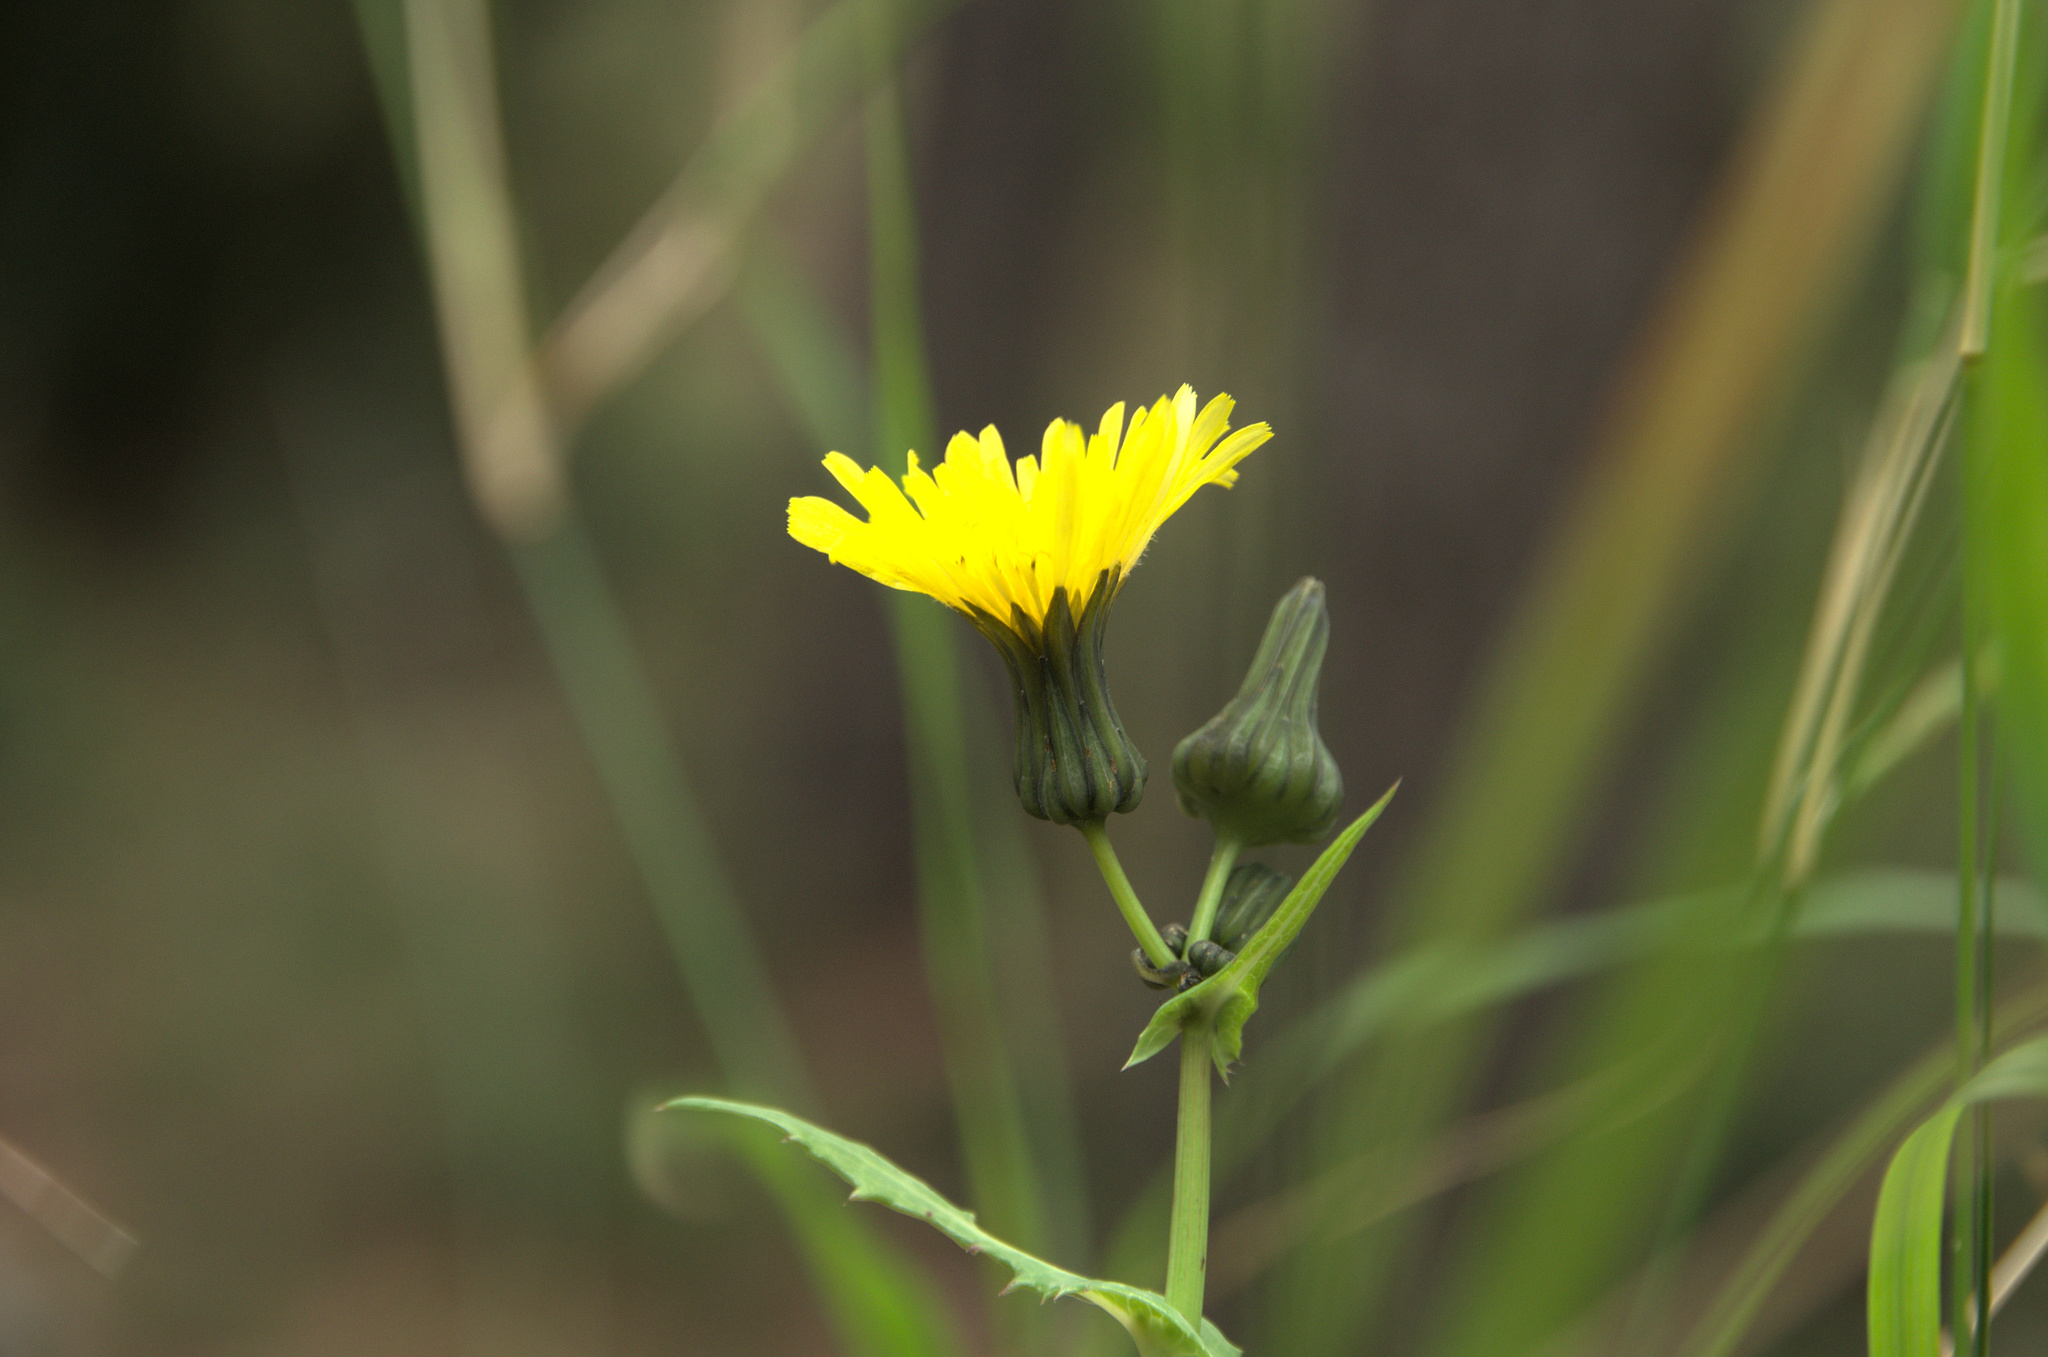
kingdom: Plantae
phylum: Tracheophyta
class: Magnoliopsida
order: Asterales
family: Asteraceae
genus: Sonchus
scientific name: Sonchus oleraceus
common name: Common sowthistle
